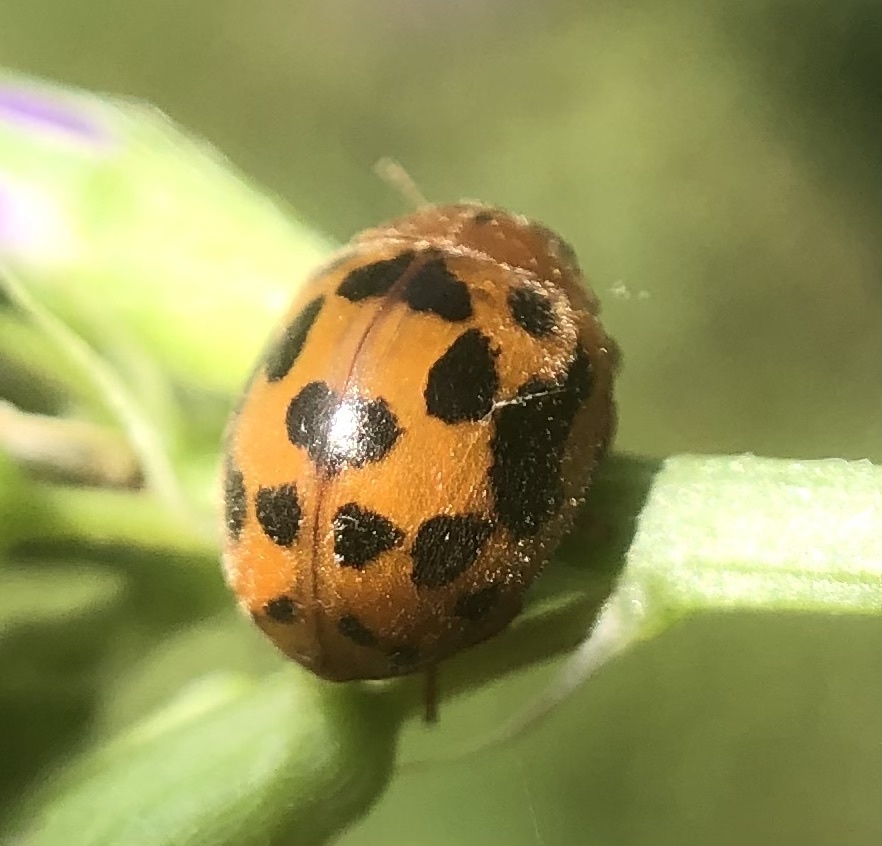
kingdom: Animalia
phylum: Arthropoda
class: Insecta
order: Coleoptera
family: Coccinellidae
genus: Subcoccinella
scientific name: Subcoccinella vigintiquatuorpunctata
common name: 24-spot ladybird
